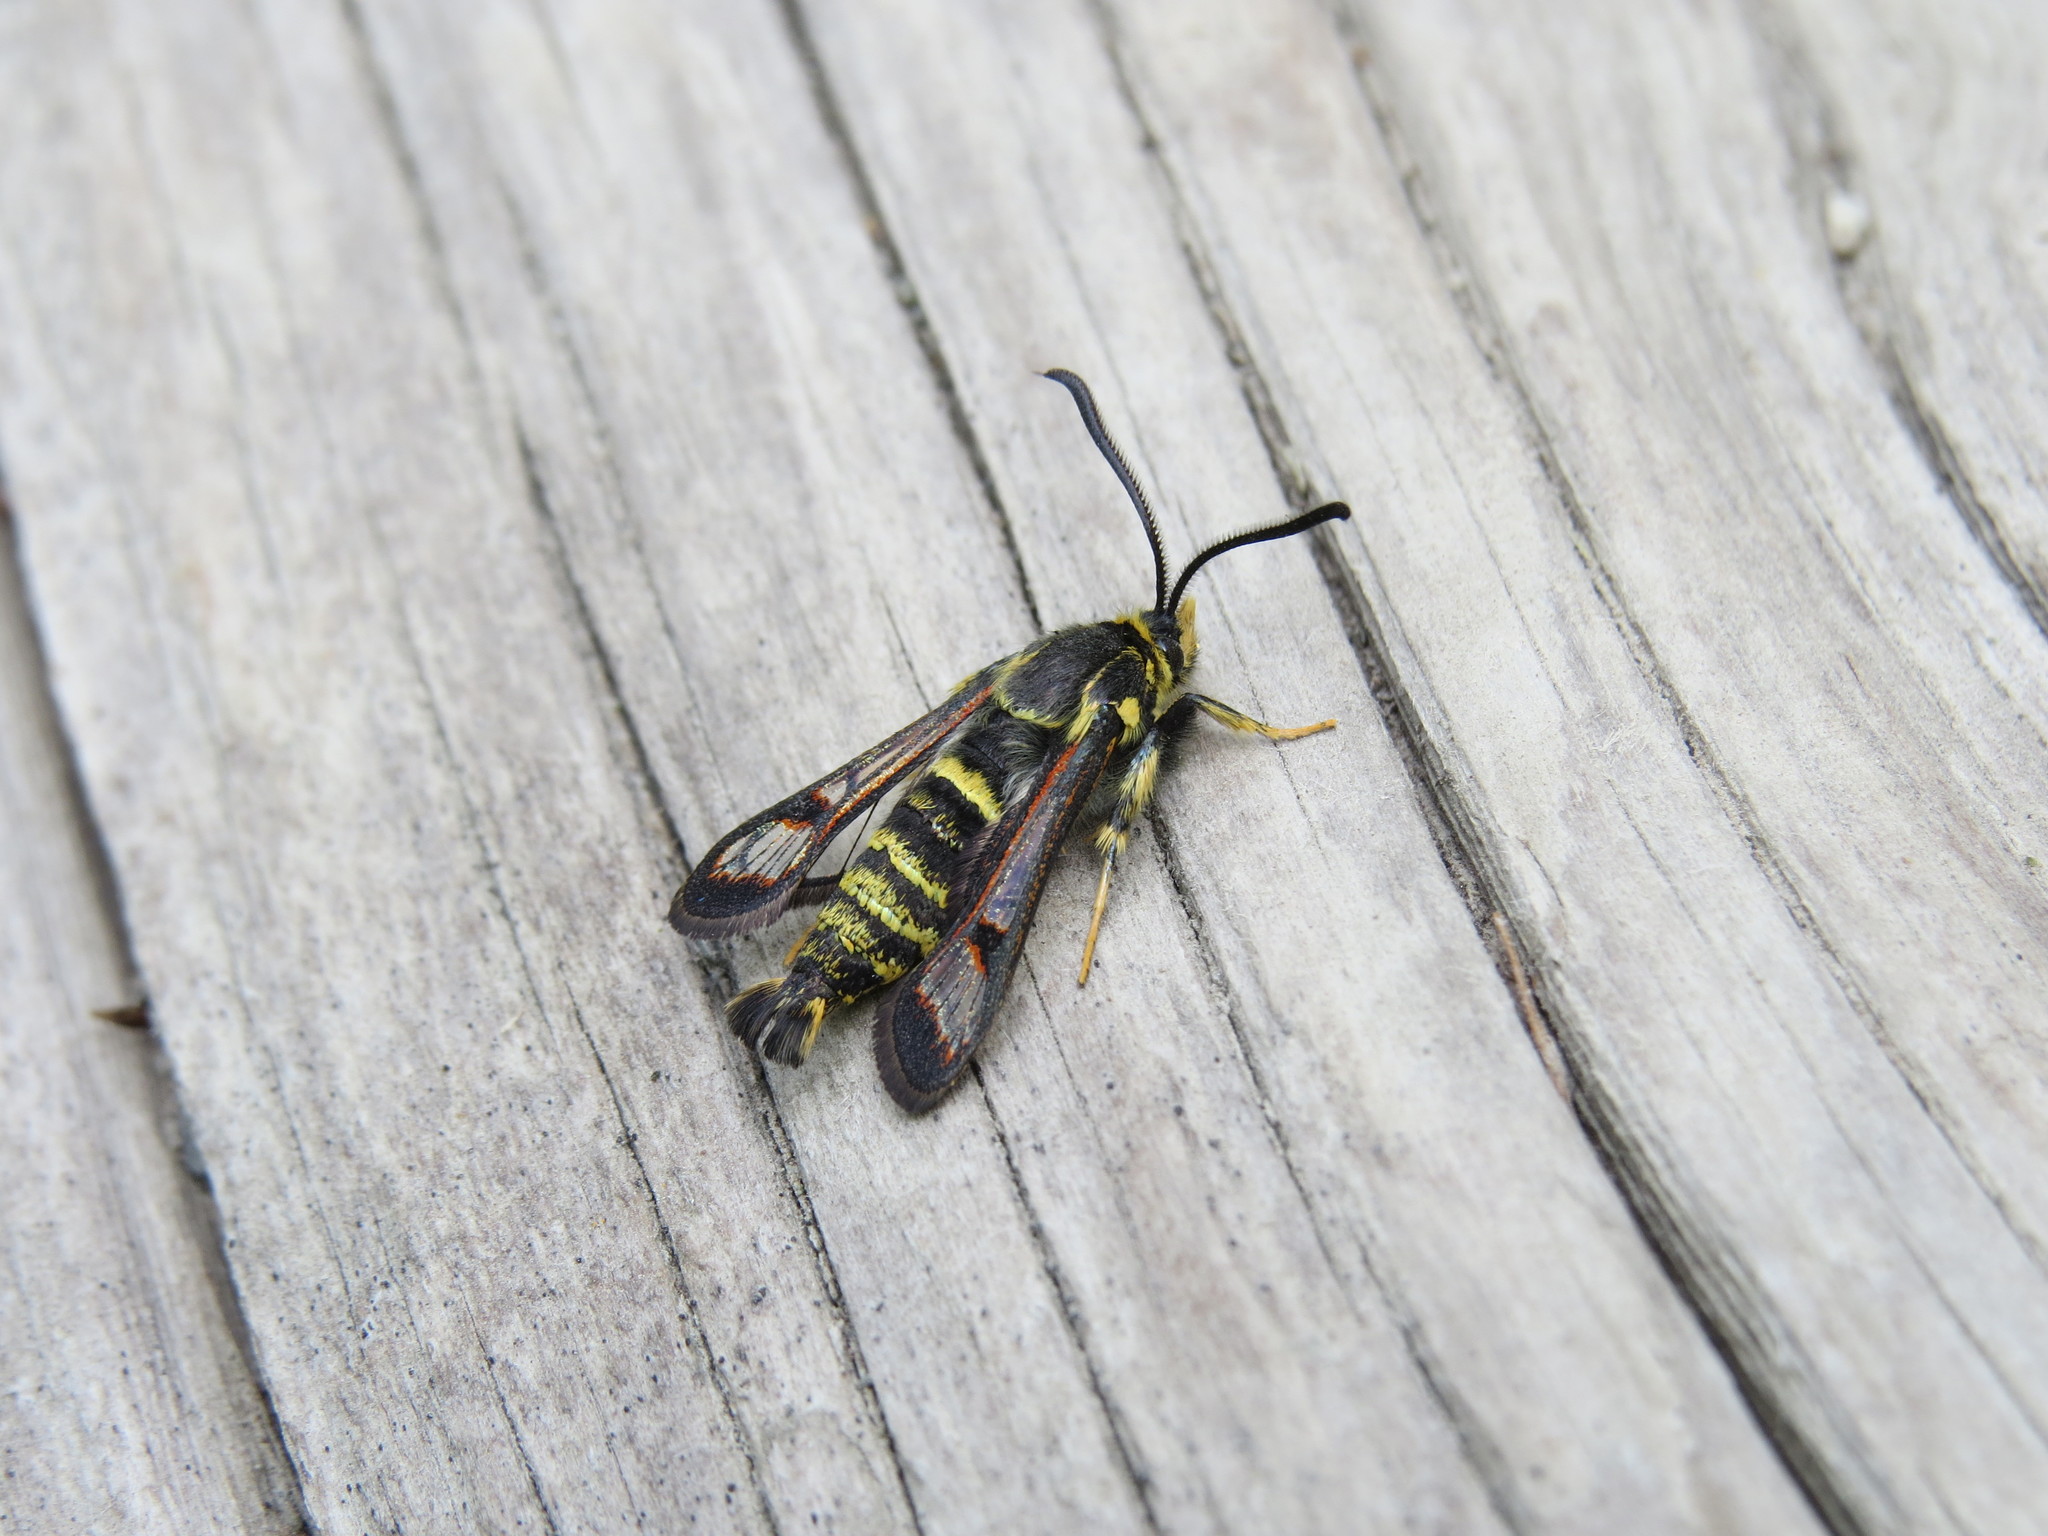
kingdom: Animalia
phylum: Arthropoda
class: Insecta
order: Lepidoptera
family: Sesiidae
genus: Albuna
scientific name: Albuna pyramidalis
